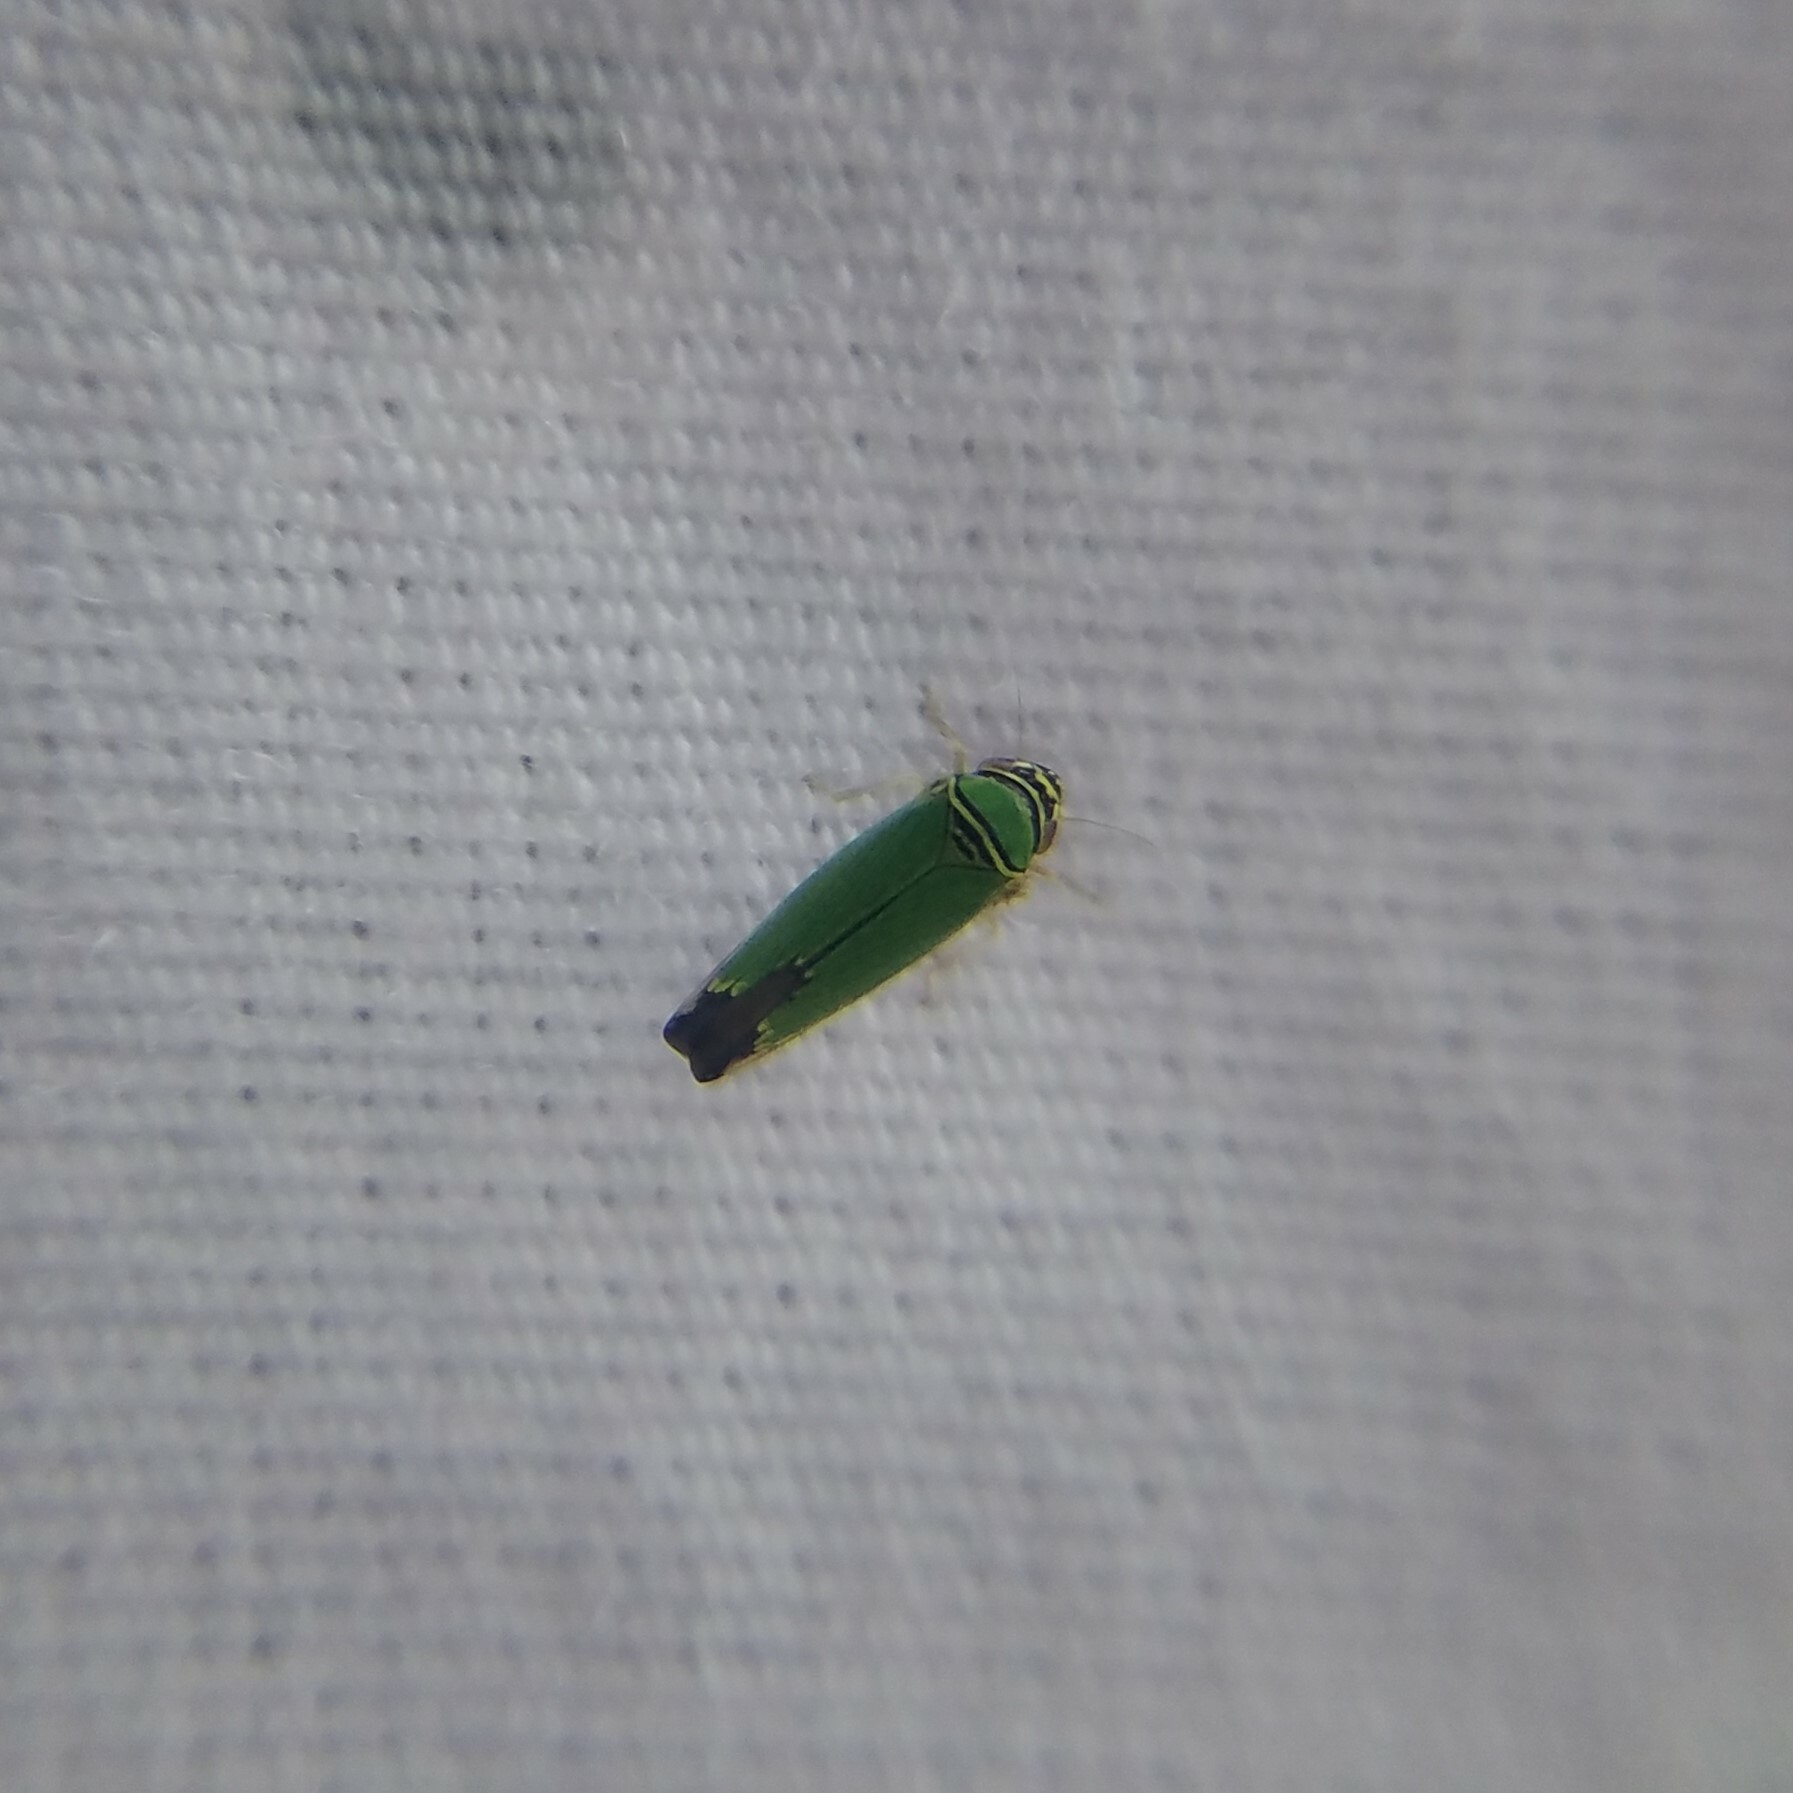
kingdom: Animalia
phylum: Arthropoda
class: Insecta
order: Hemiptera
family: Cicadellidae
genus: Tylozygus
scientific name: Tylozygus geometricus
